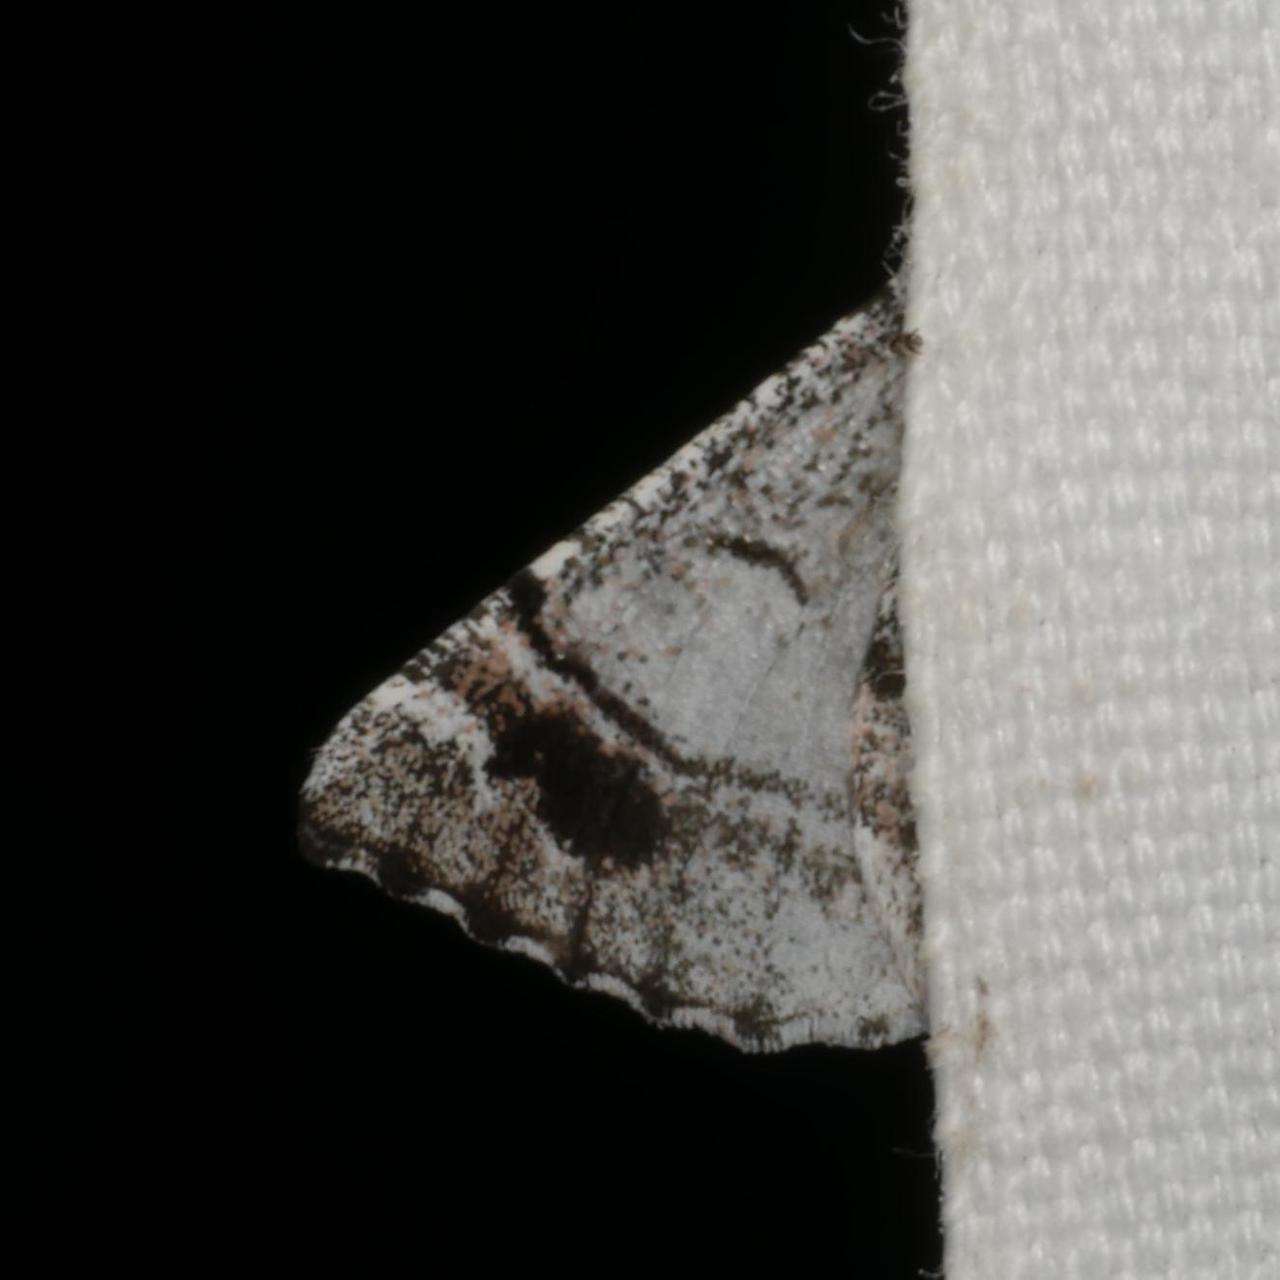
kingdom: Animalia
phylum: Arthropoda
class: Insecta
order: Lepidoptera
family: Geometridae
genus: Hypobapta
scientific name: Hypobapta barnardi
